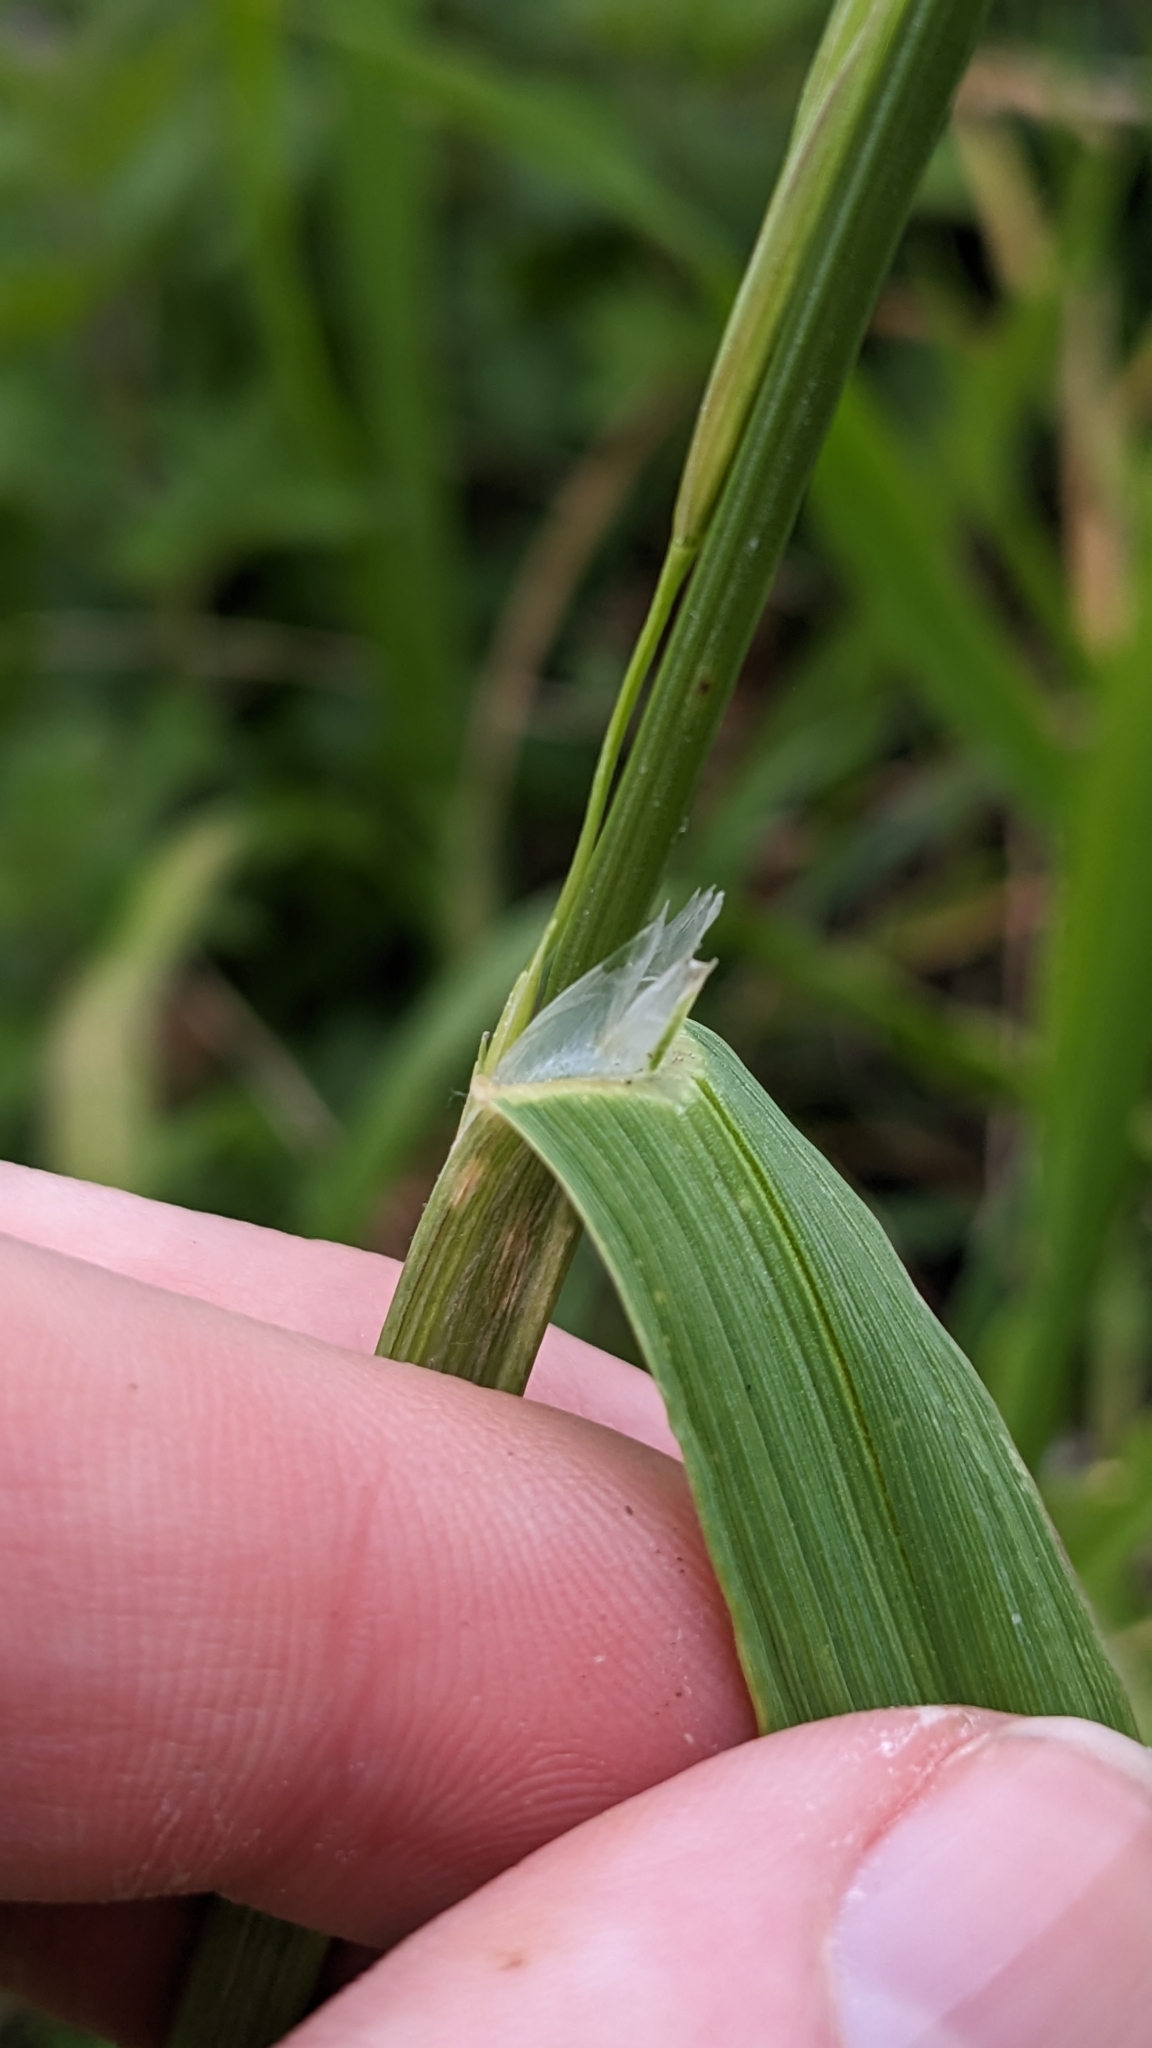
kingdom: Plantae
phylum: Tracheophyta
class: Liliopsida
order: Poales
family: Poaceae
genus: Bromus
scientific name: Bromus catharticus
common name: Rescuegrass
